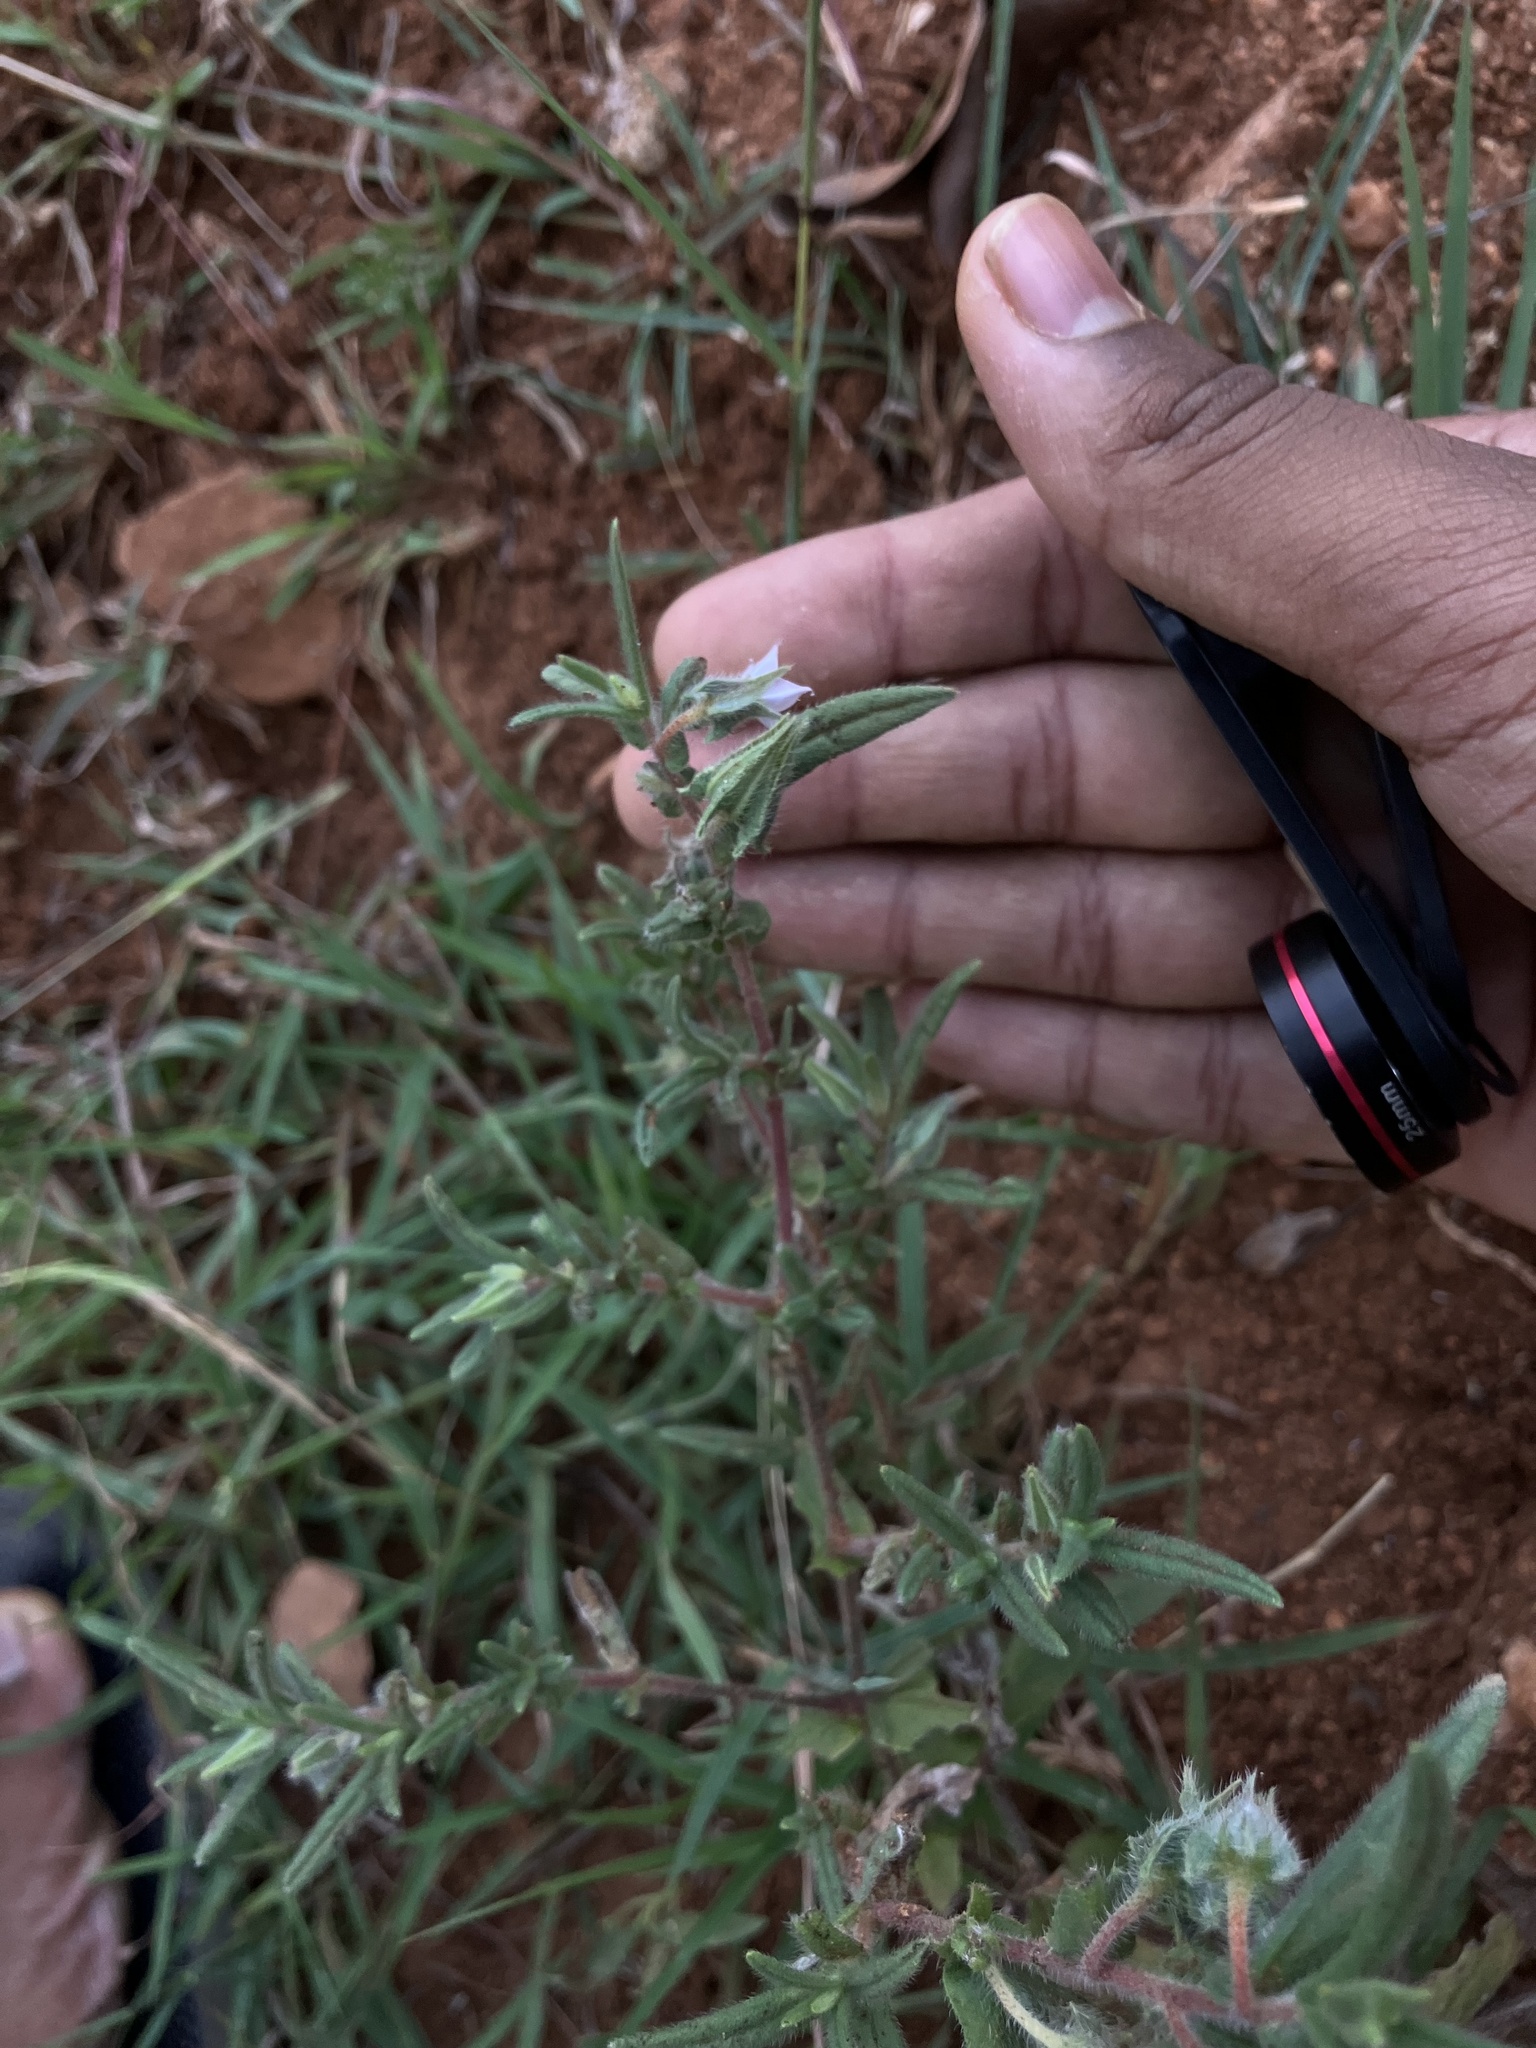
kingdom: Plantae
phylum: Tracheophyta
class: Magnoliopsida
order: Boraginales
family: Boraginaceae
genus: Trichodesma
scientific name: Trichodesma indicum
